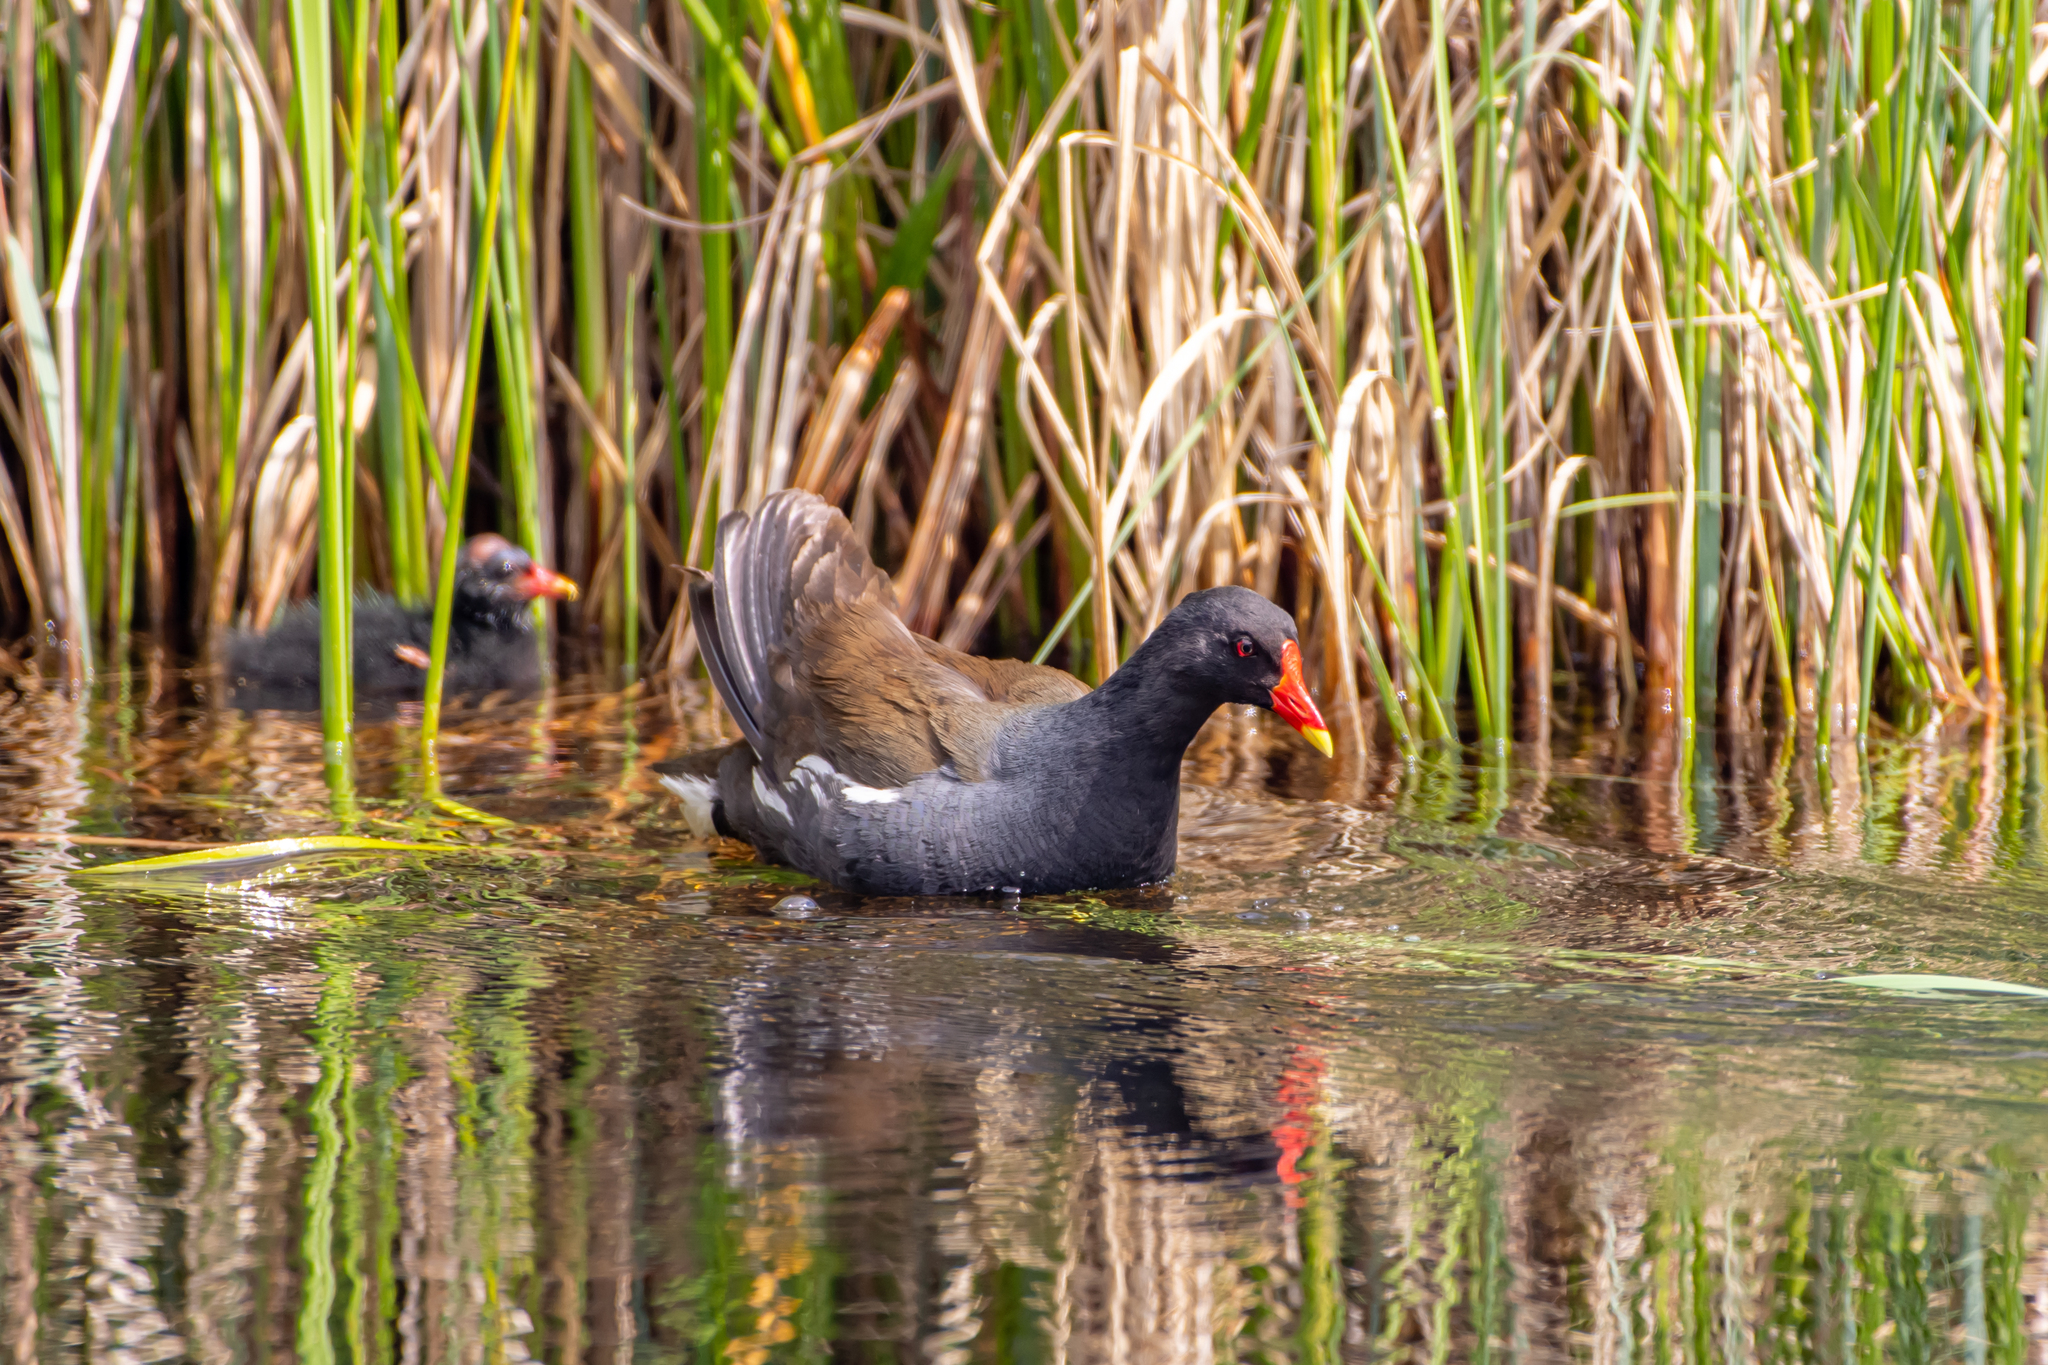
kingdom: Animalia
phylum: Chordata
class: Aves
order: Gruiformes
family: Rallidae
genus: Gallinula
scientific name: Gallinula chloropus
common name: Common moorhen
